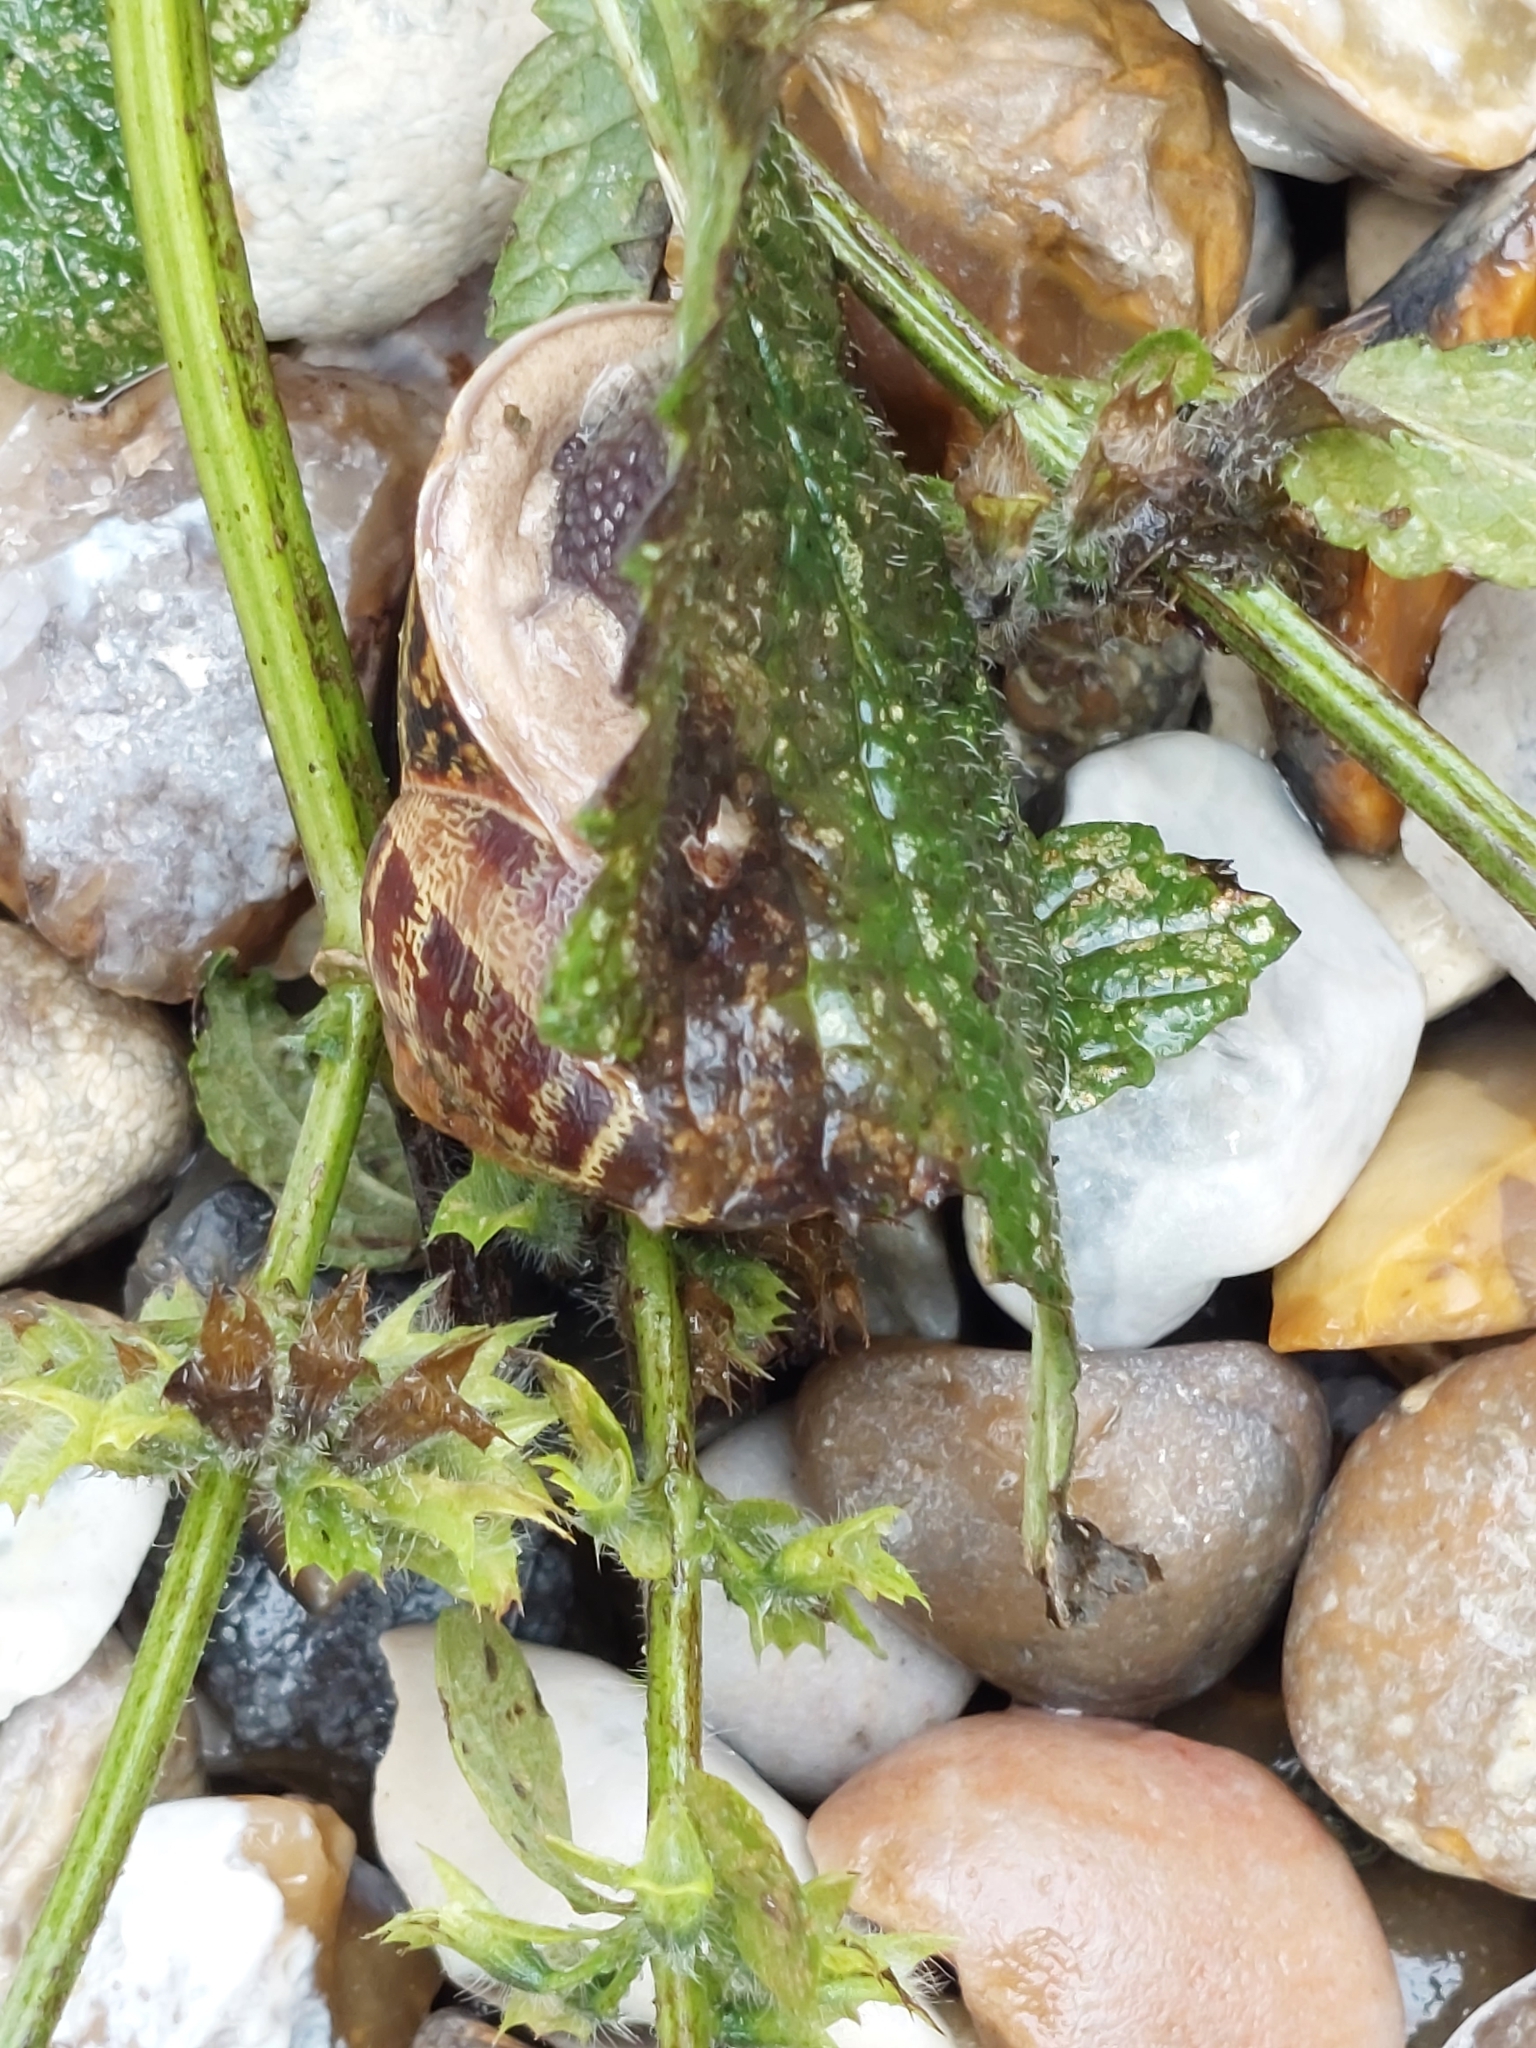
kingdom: Animalia
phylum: Mollusca
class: Gastropoda
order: Stylommatophora
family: Helicidae
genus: Cornu
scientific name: Cornu aspersum
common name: Brown garden snail
